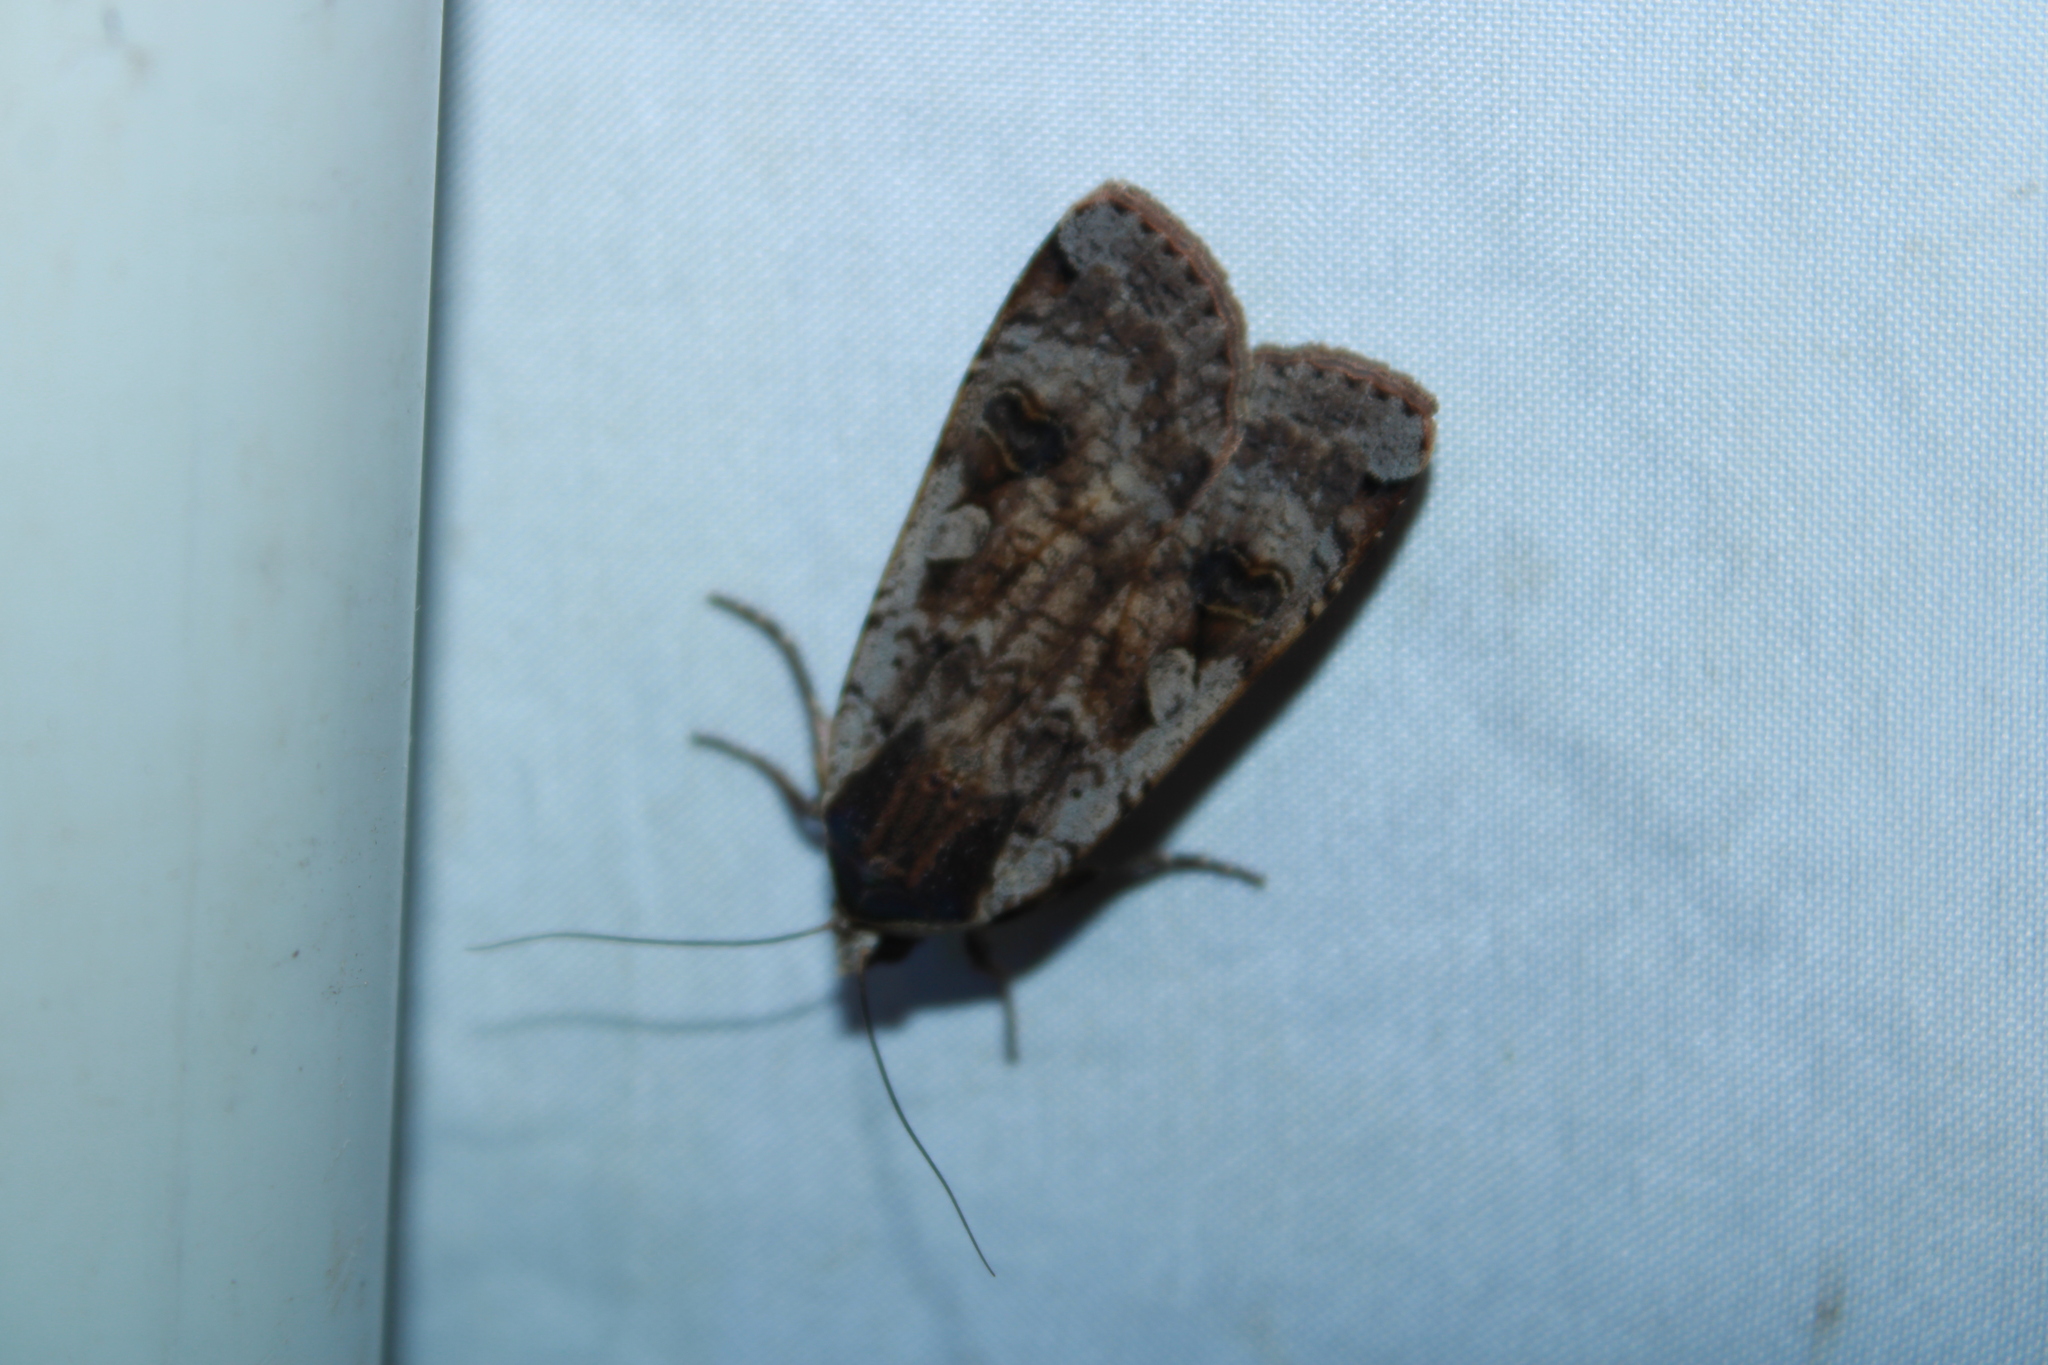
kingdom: Animalia
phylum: Arthropoda
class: Insecta
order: Lepidoptera
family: Noctuidae
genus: Noctua
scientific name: Noctua pronuba
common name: Large yellow underwing
